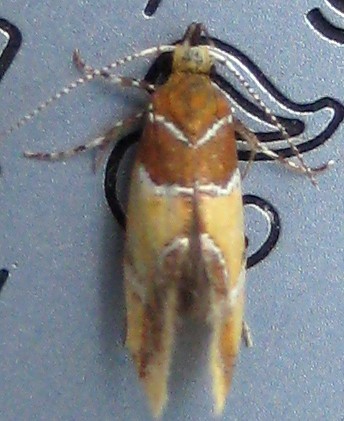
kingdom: Animalia
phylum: Arthropoda
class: Insecta
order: Lepidoptera
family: Oecophoridae
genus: Callima
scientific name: Callima argenticinctella
